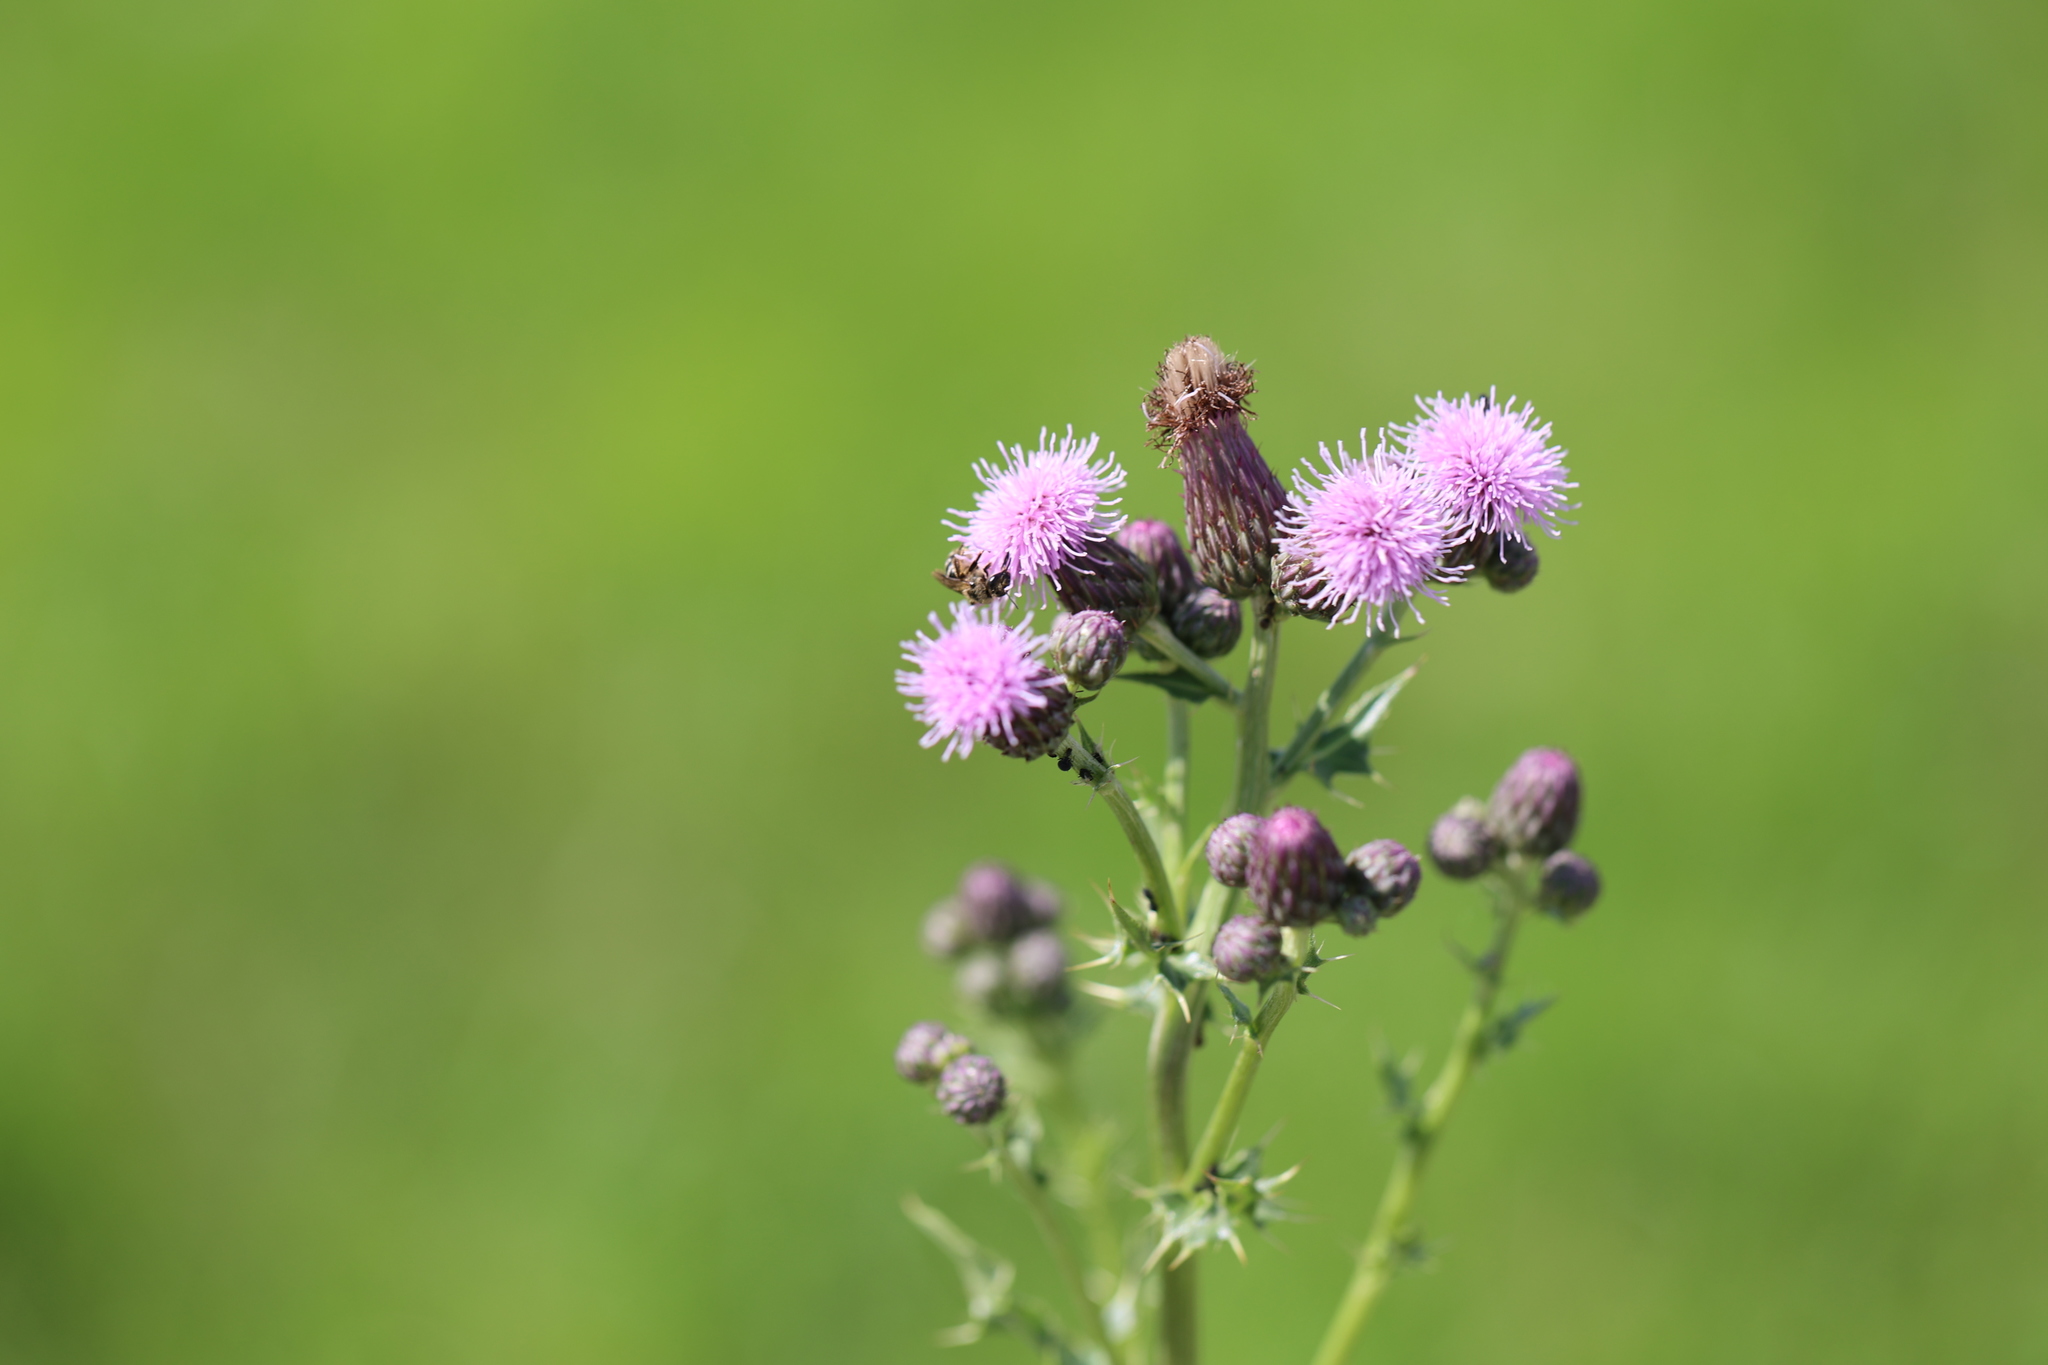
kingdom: Plantae
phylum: Tracheophyta
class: Magnoliopsida
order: Asterales
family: Asteraceae
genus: Cirsium
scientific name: Cirsium arvense
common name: Creeping thistle
